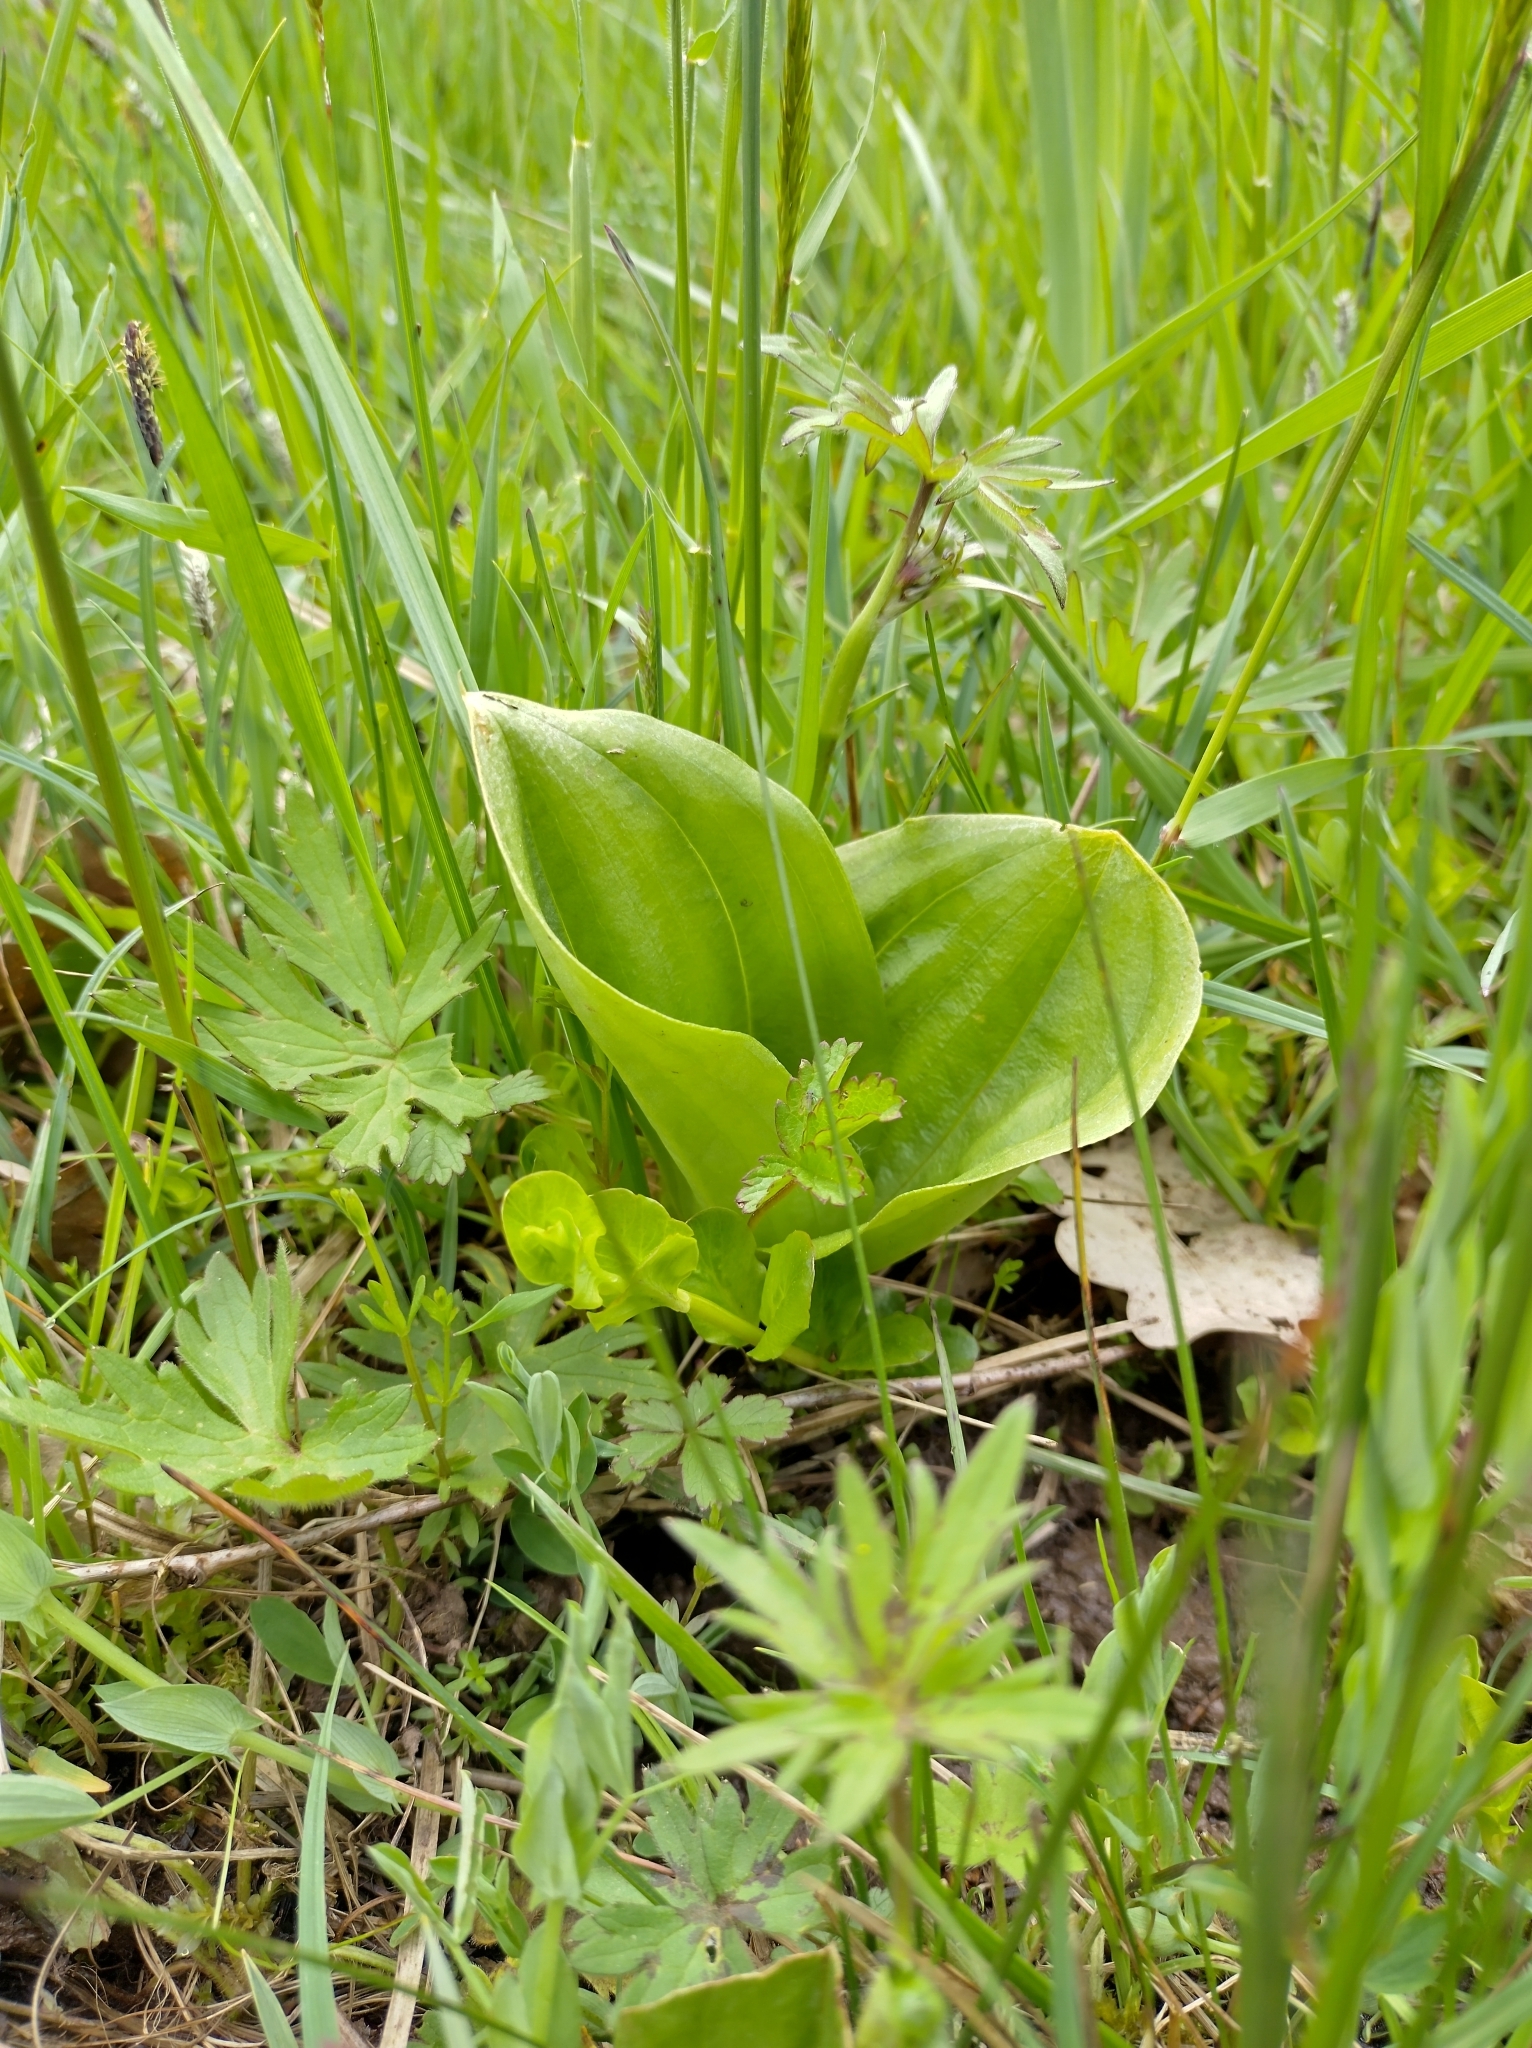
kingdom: Plantae
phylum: Tracheophyta
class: Liliopsida
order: Asparagales
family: Orchidaceae
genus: Neottia
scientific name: Neottia ovata
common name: Common twayblade
